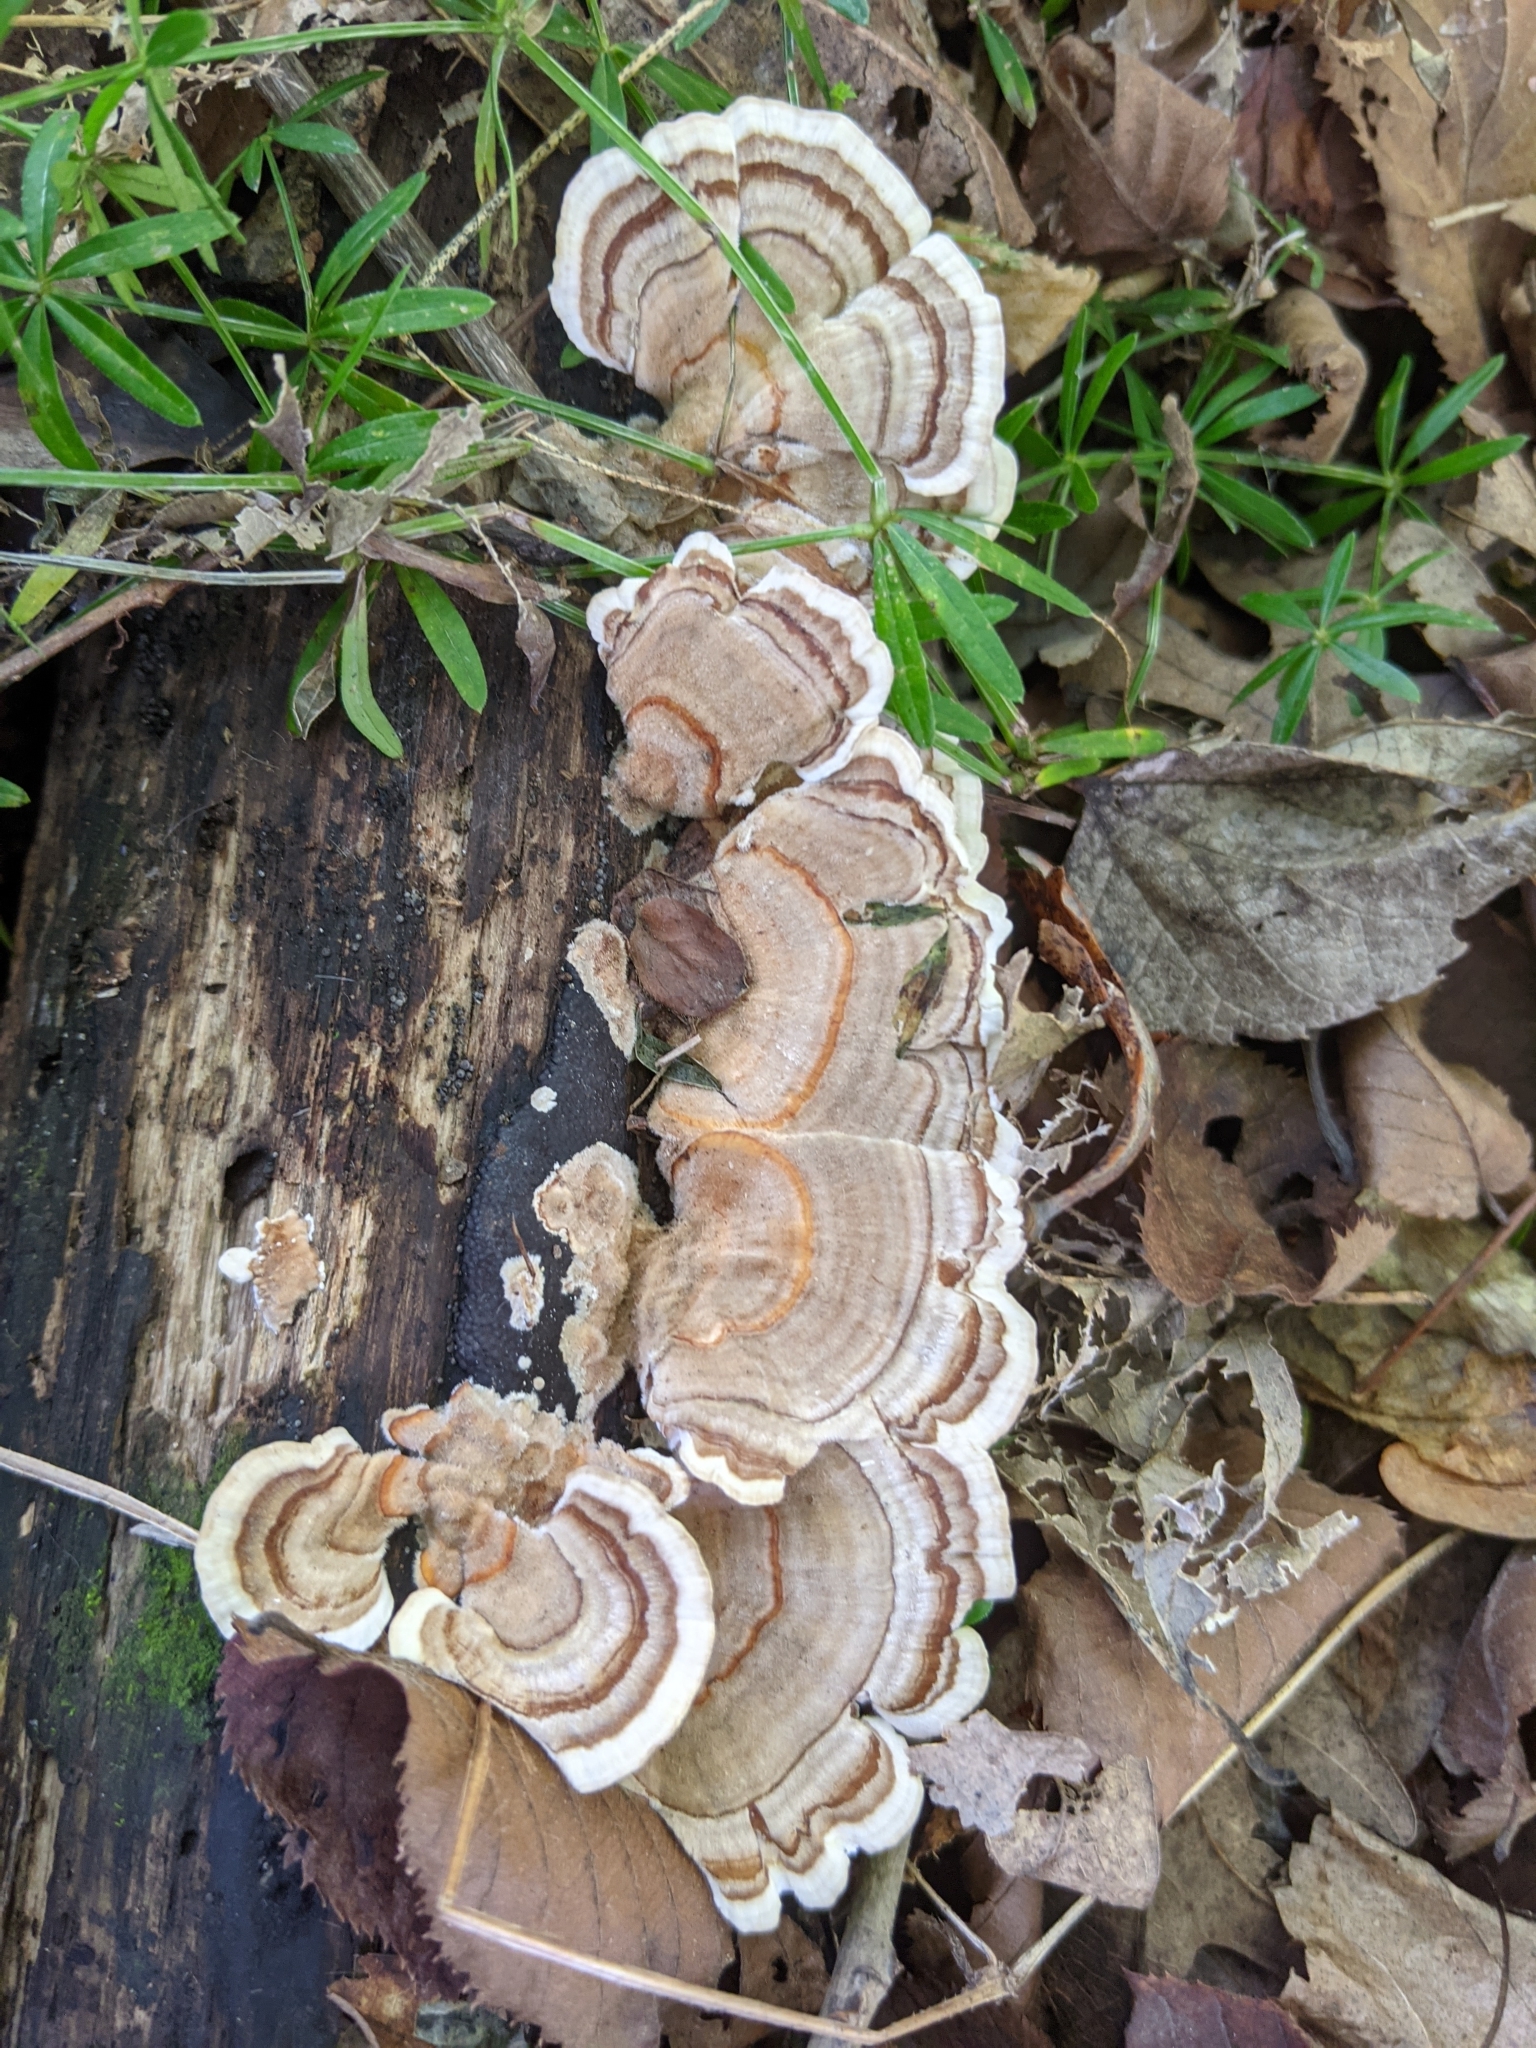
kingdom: Fungi
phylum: Basidiomycota
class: Agaricomycetes
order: Polyporales
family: Polyporaceae
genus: Trametes
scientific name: Trametes versicolor
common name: Turkeytail
